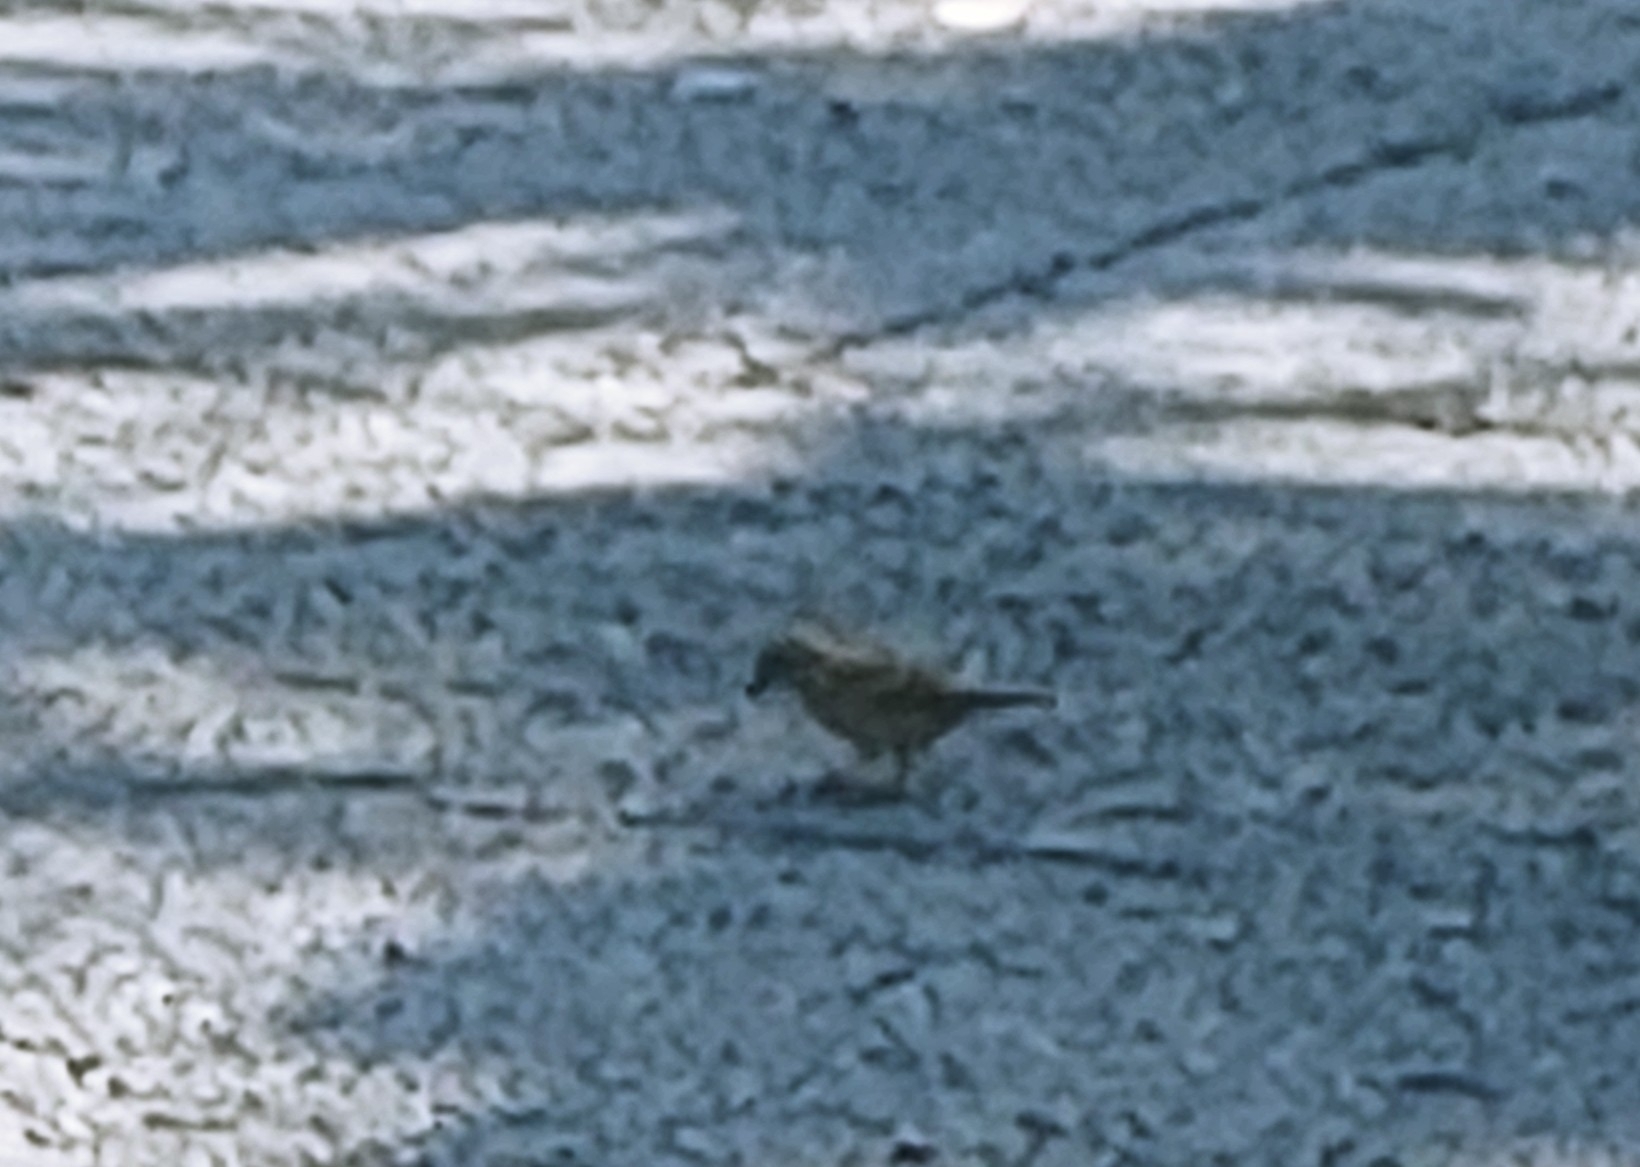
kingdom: Animalia
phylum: Chordata
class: Aves
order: Passeriformes
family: Passeridae
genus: Passer
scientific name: Passer domesticus
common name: House sparrow
